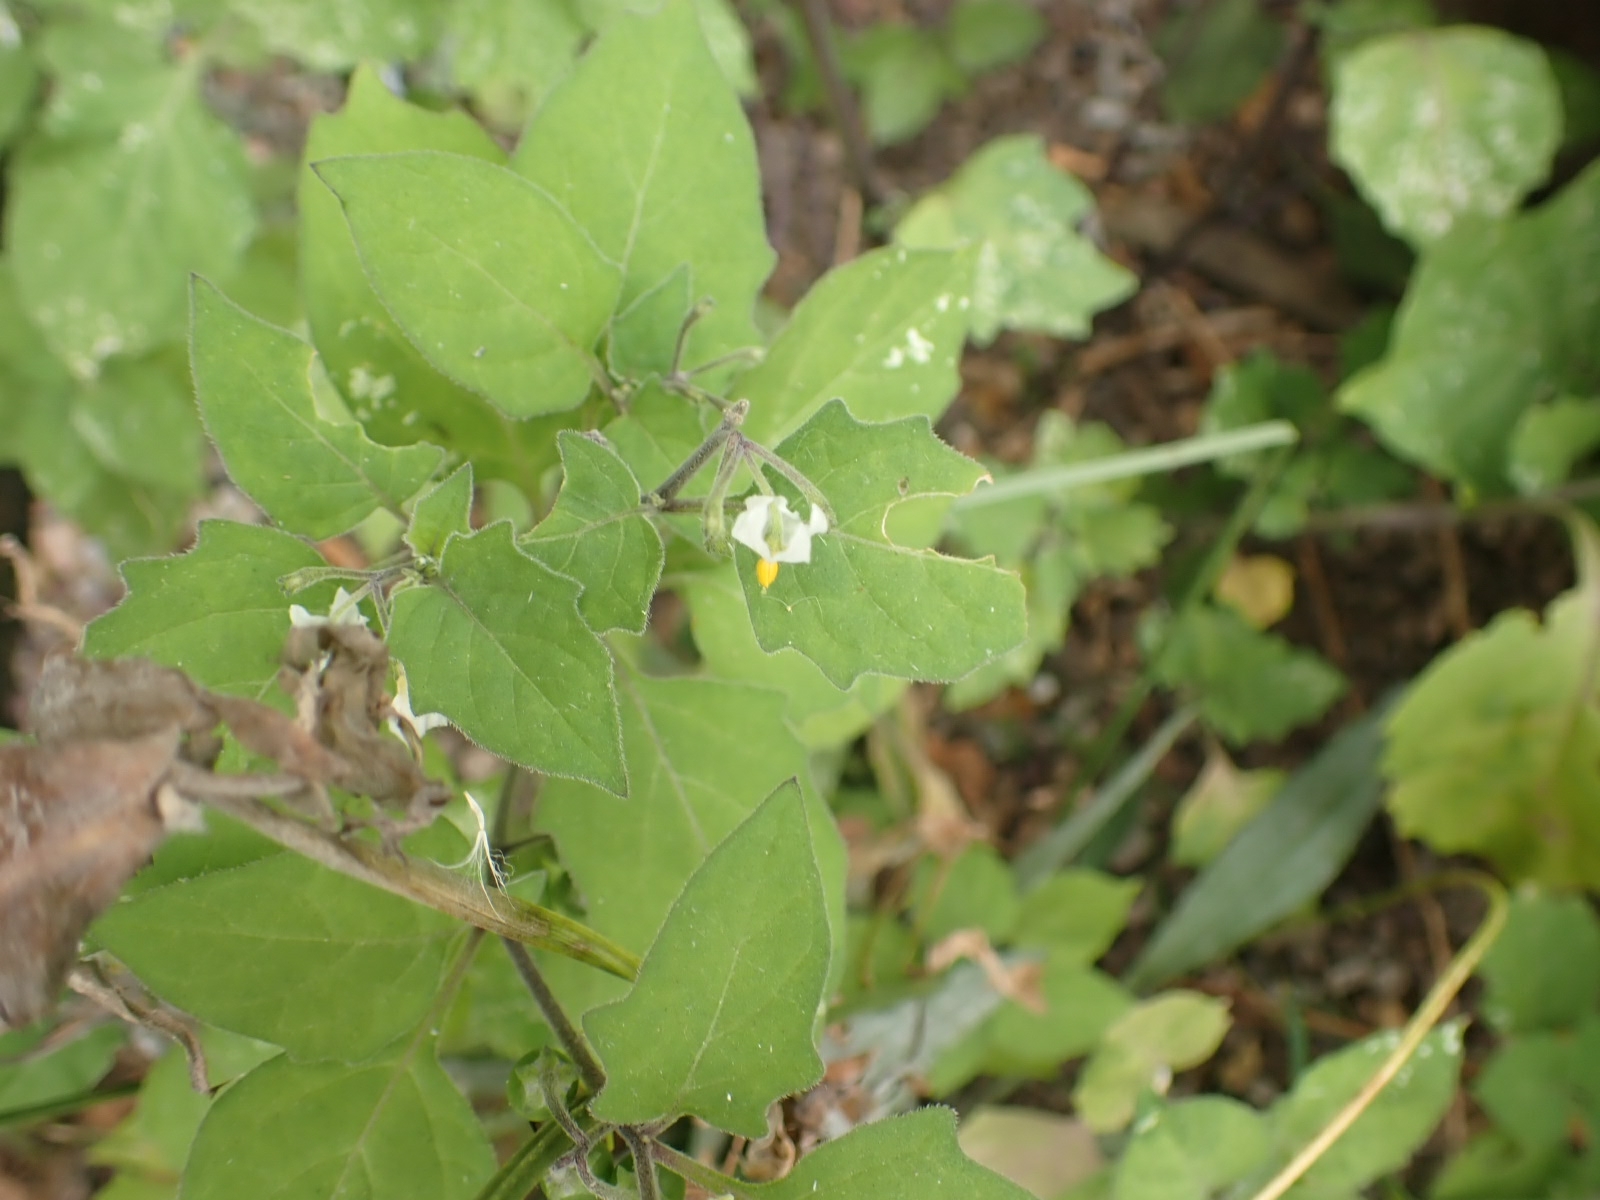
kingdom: Plantae
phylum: Tracheophyta
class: Magnoliopsida
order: Solanales
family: Solanaceae
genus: Solanum
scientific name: Solanum nigrum
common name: Black nightshade
